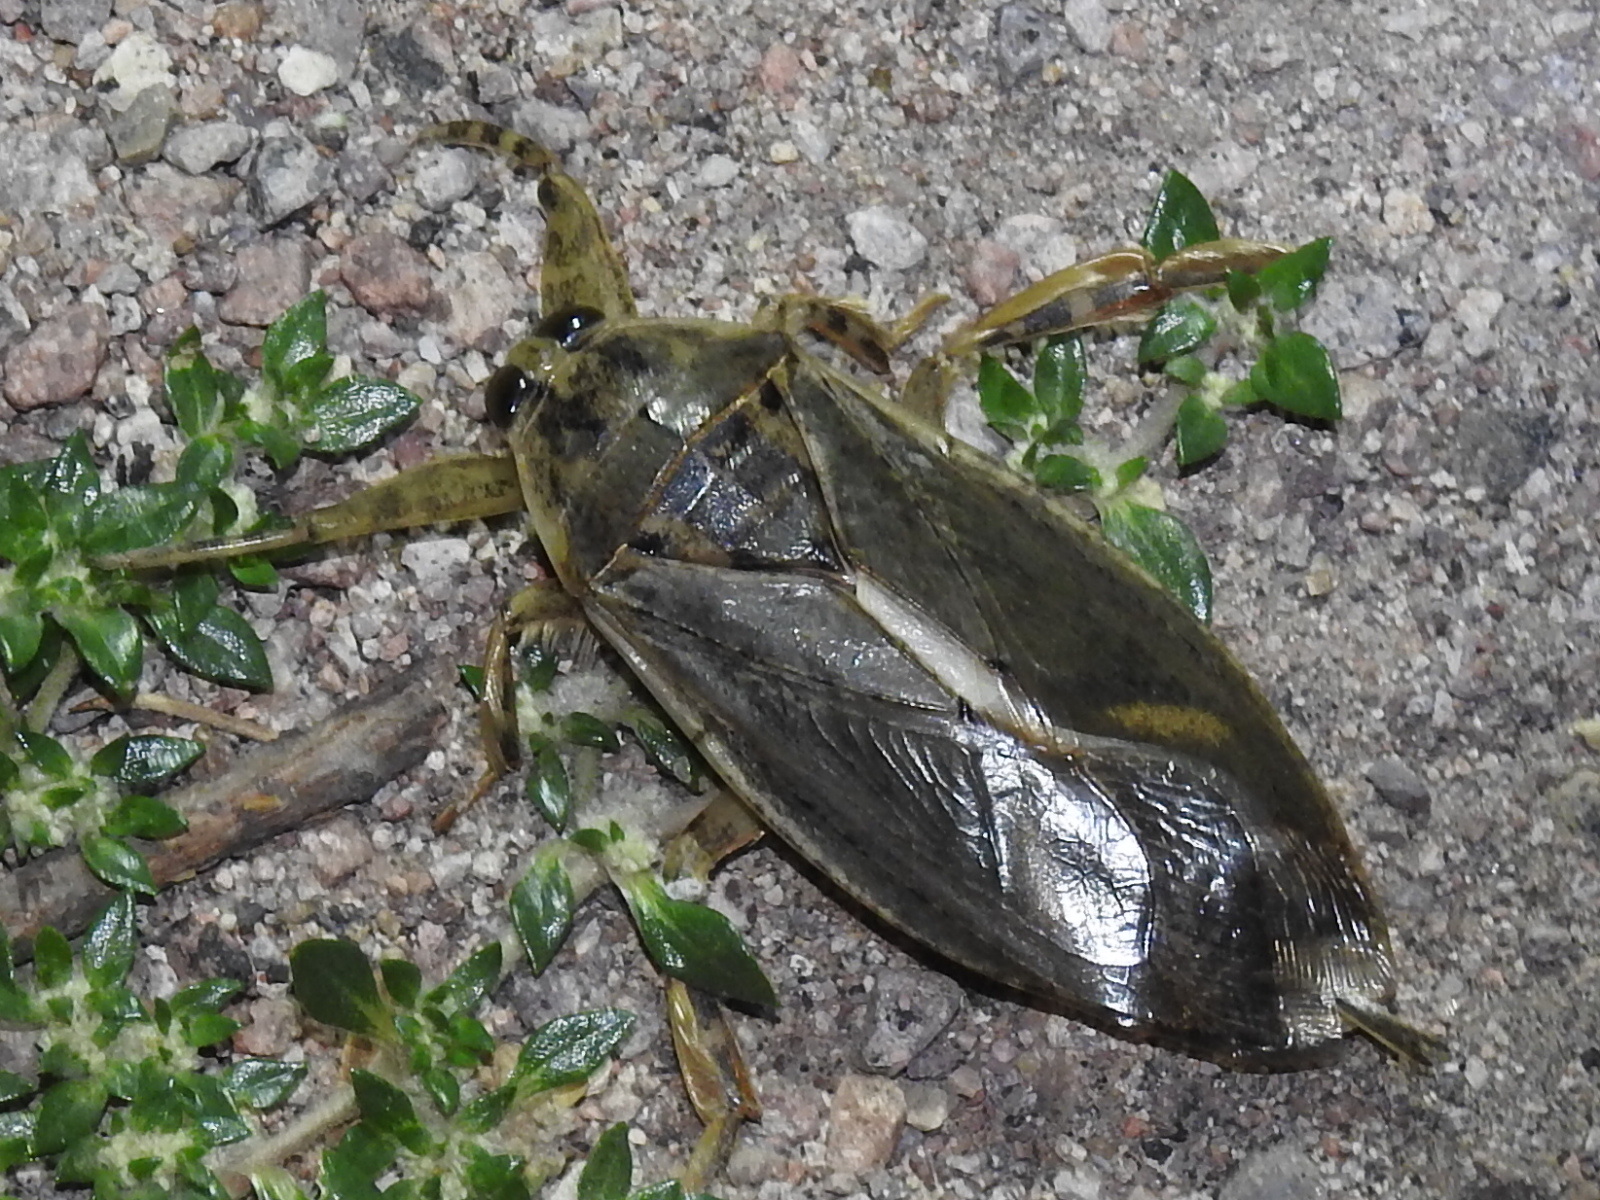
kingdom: Animalia
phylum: Arthropoda
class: Insecta
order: Hemiptera
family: Belostomatidae
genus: Lethocerus
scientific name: Lethocerus medius
